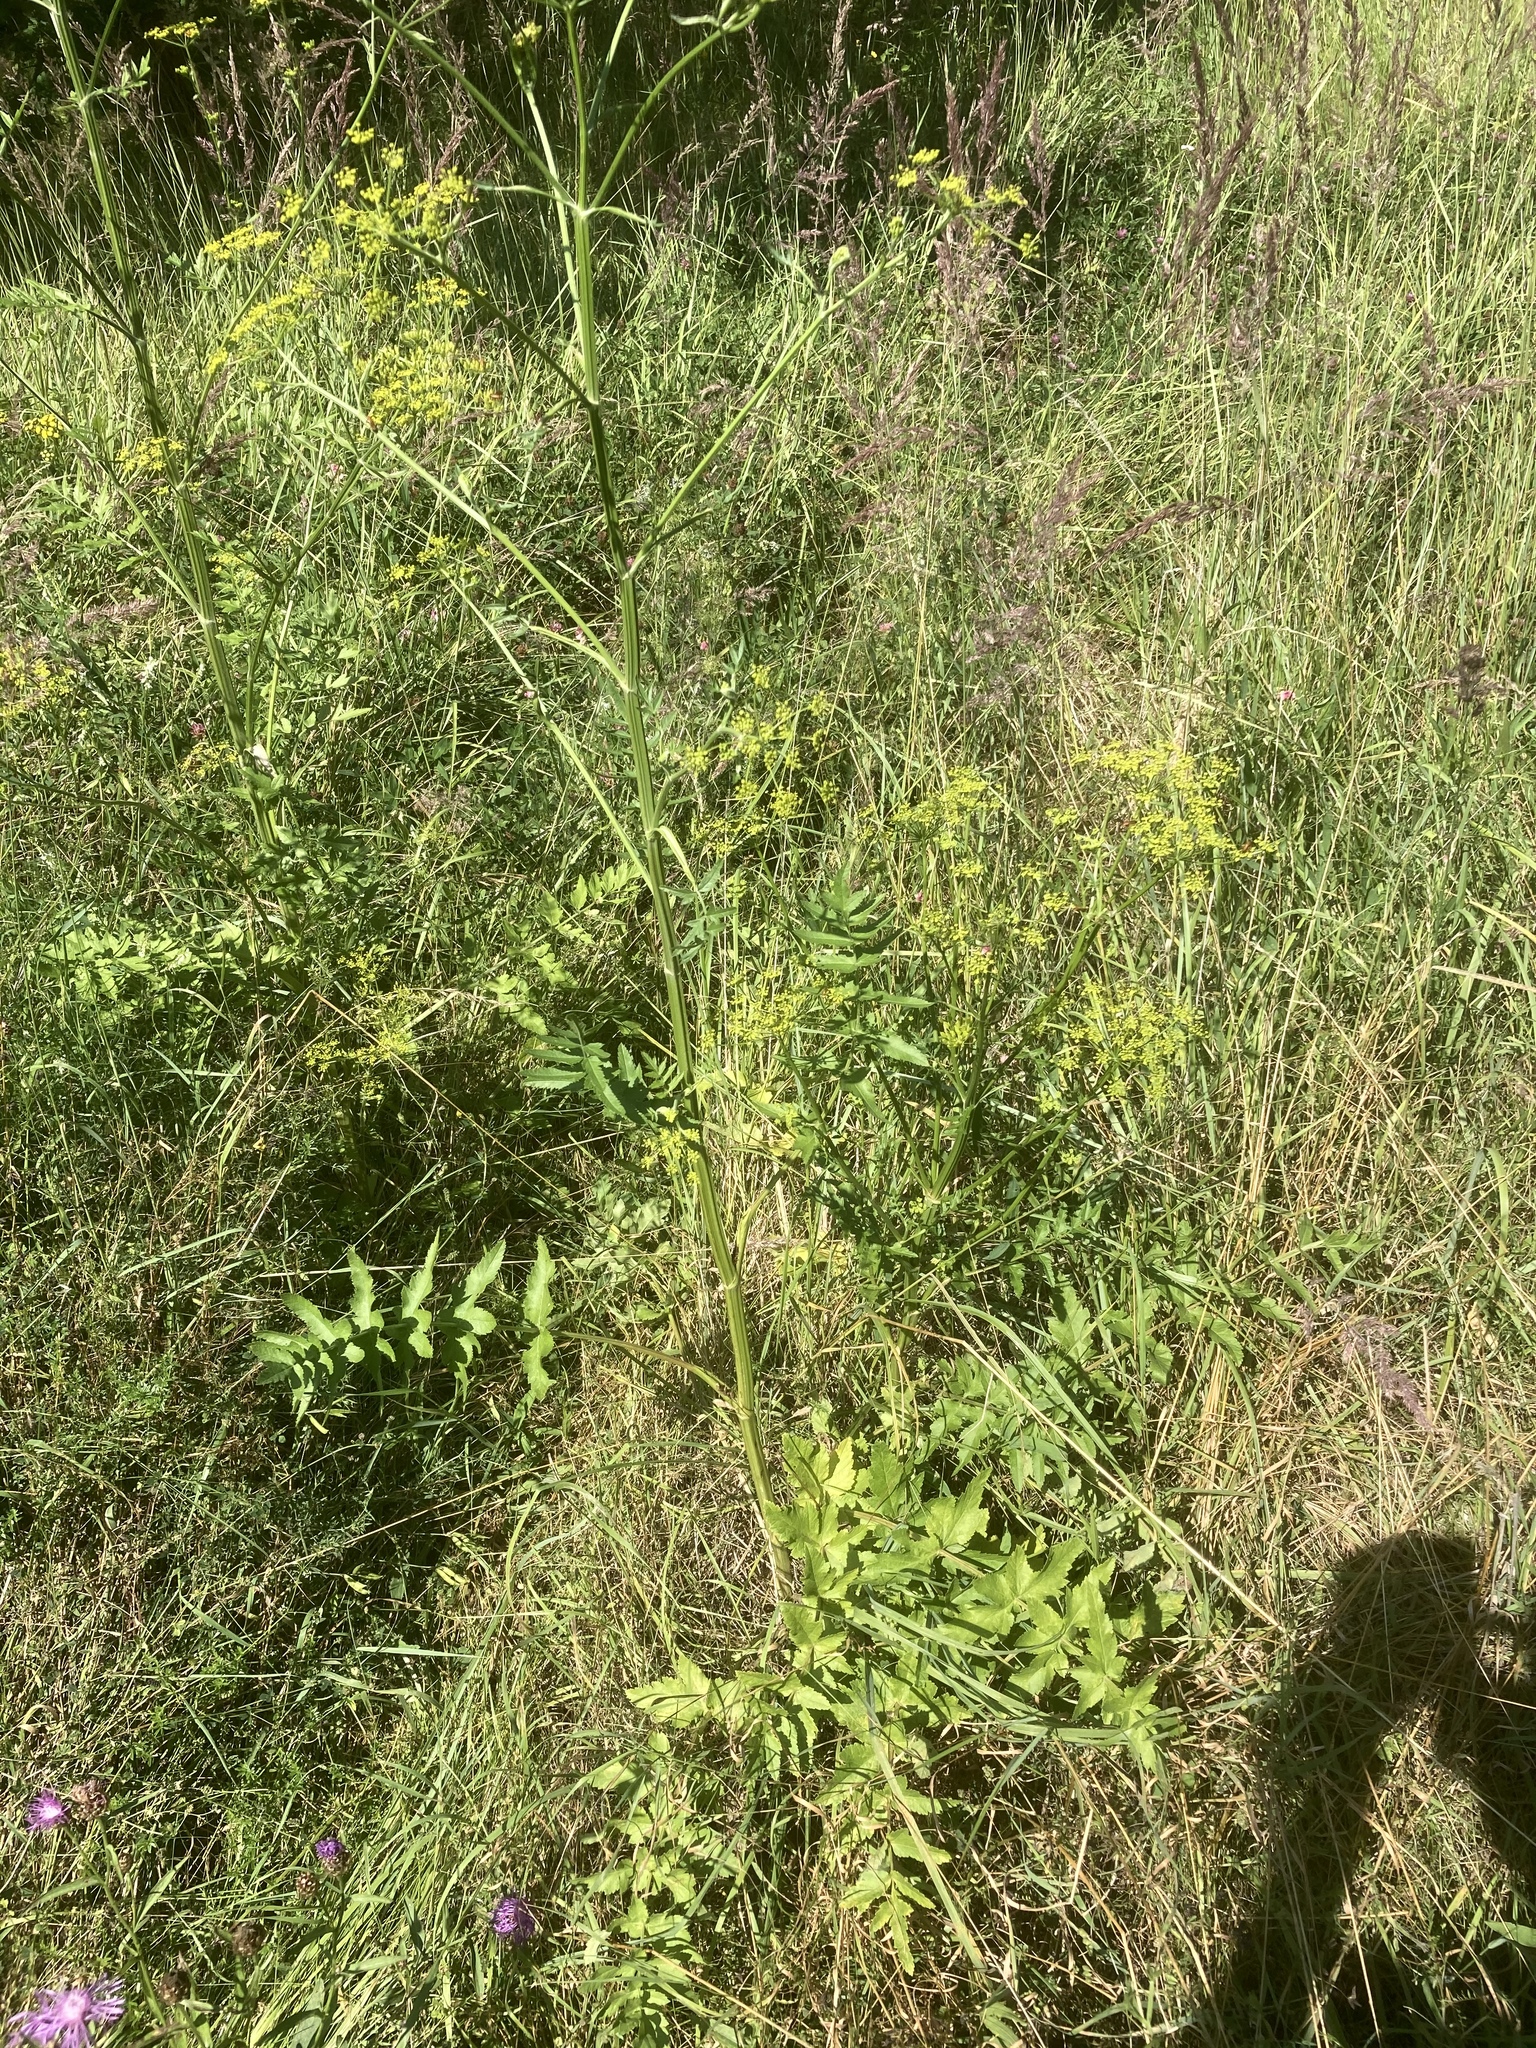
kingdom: Plantae
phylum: Tracheophyta
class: Magnoliopsida
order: Apiales
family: Apiaceae
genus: Pastinaca
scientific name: Pastinaca sativa
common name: Wild parsnip
